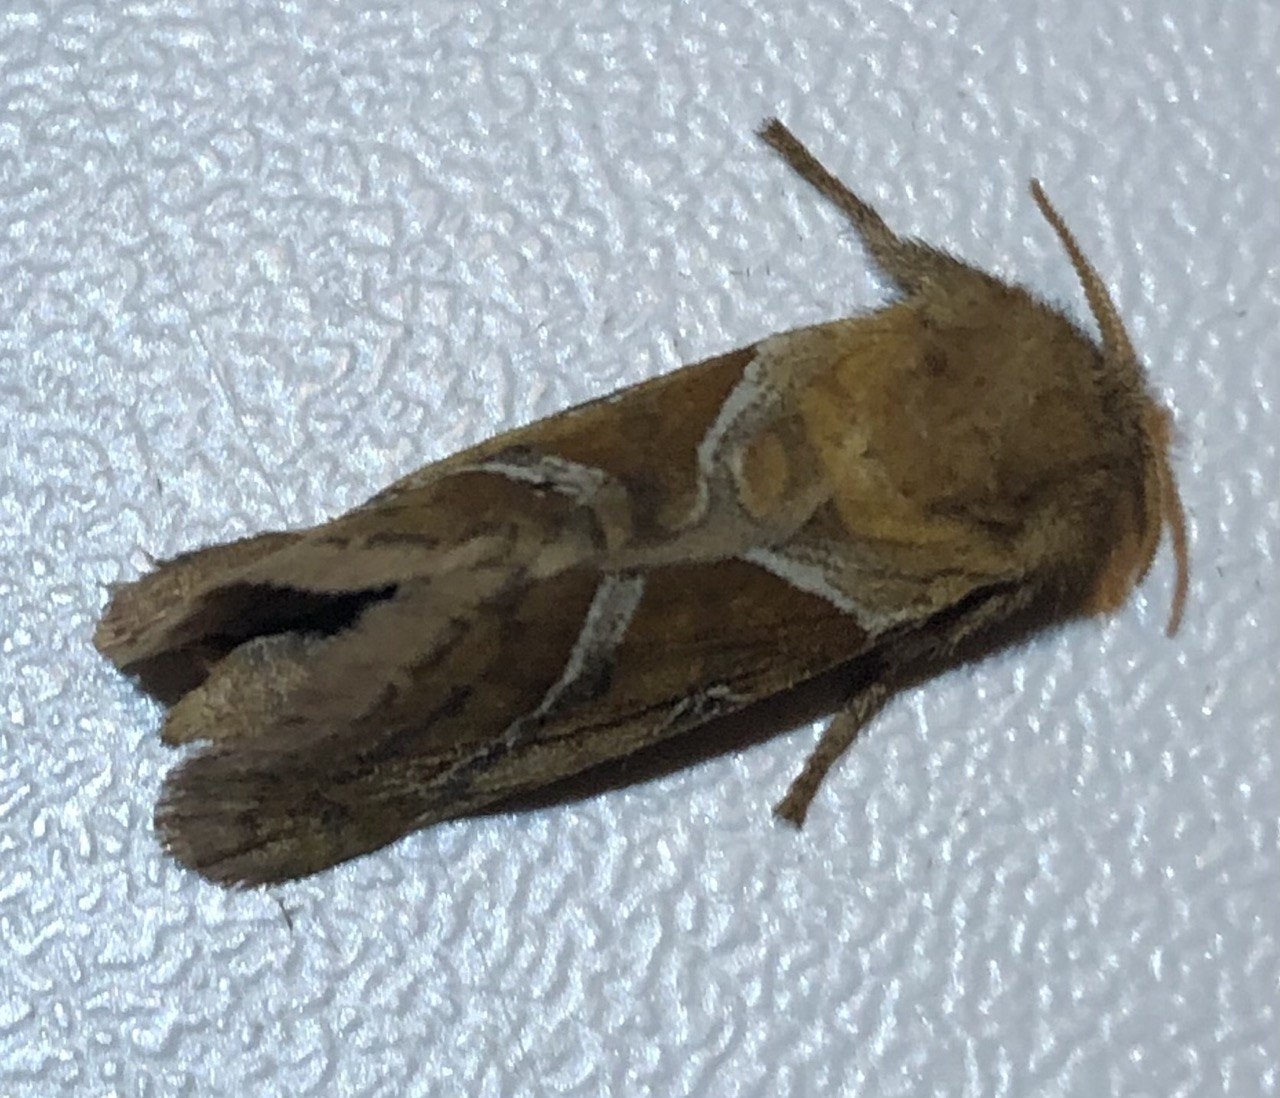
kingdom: Animalia
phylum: Arthropoda
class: Insecta
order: Lepidoptera
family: Hepialidae
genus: Triodia
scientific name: Triodia sylvina
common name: Orange swift
